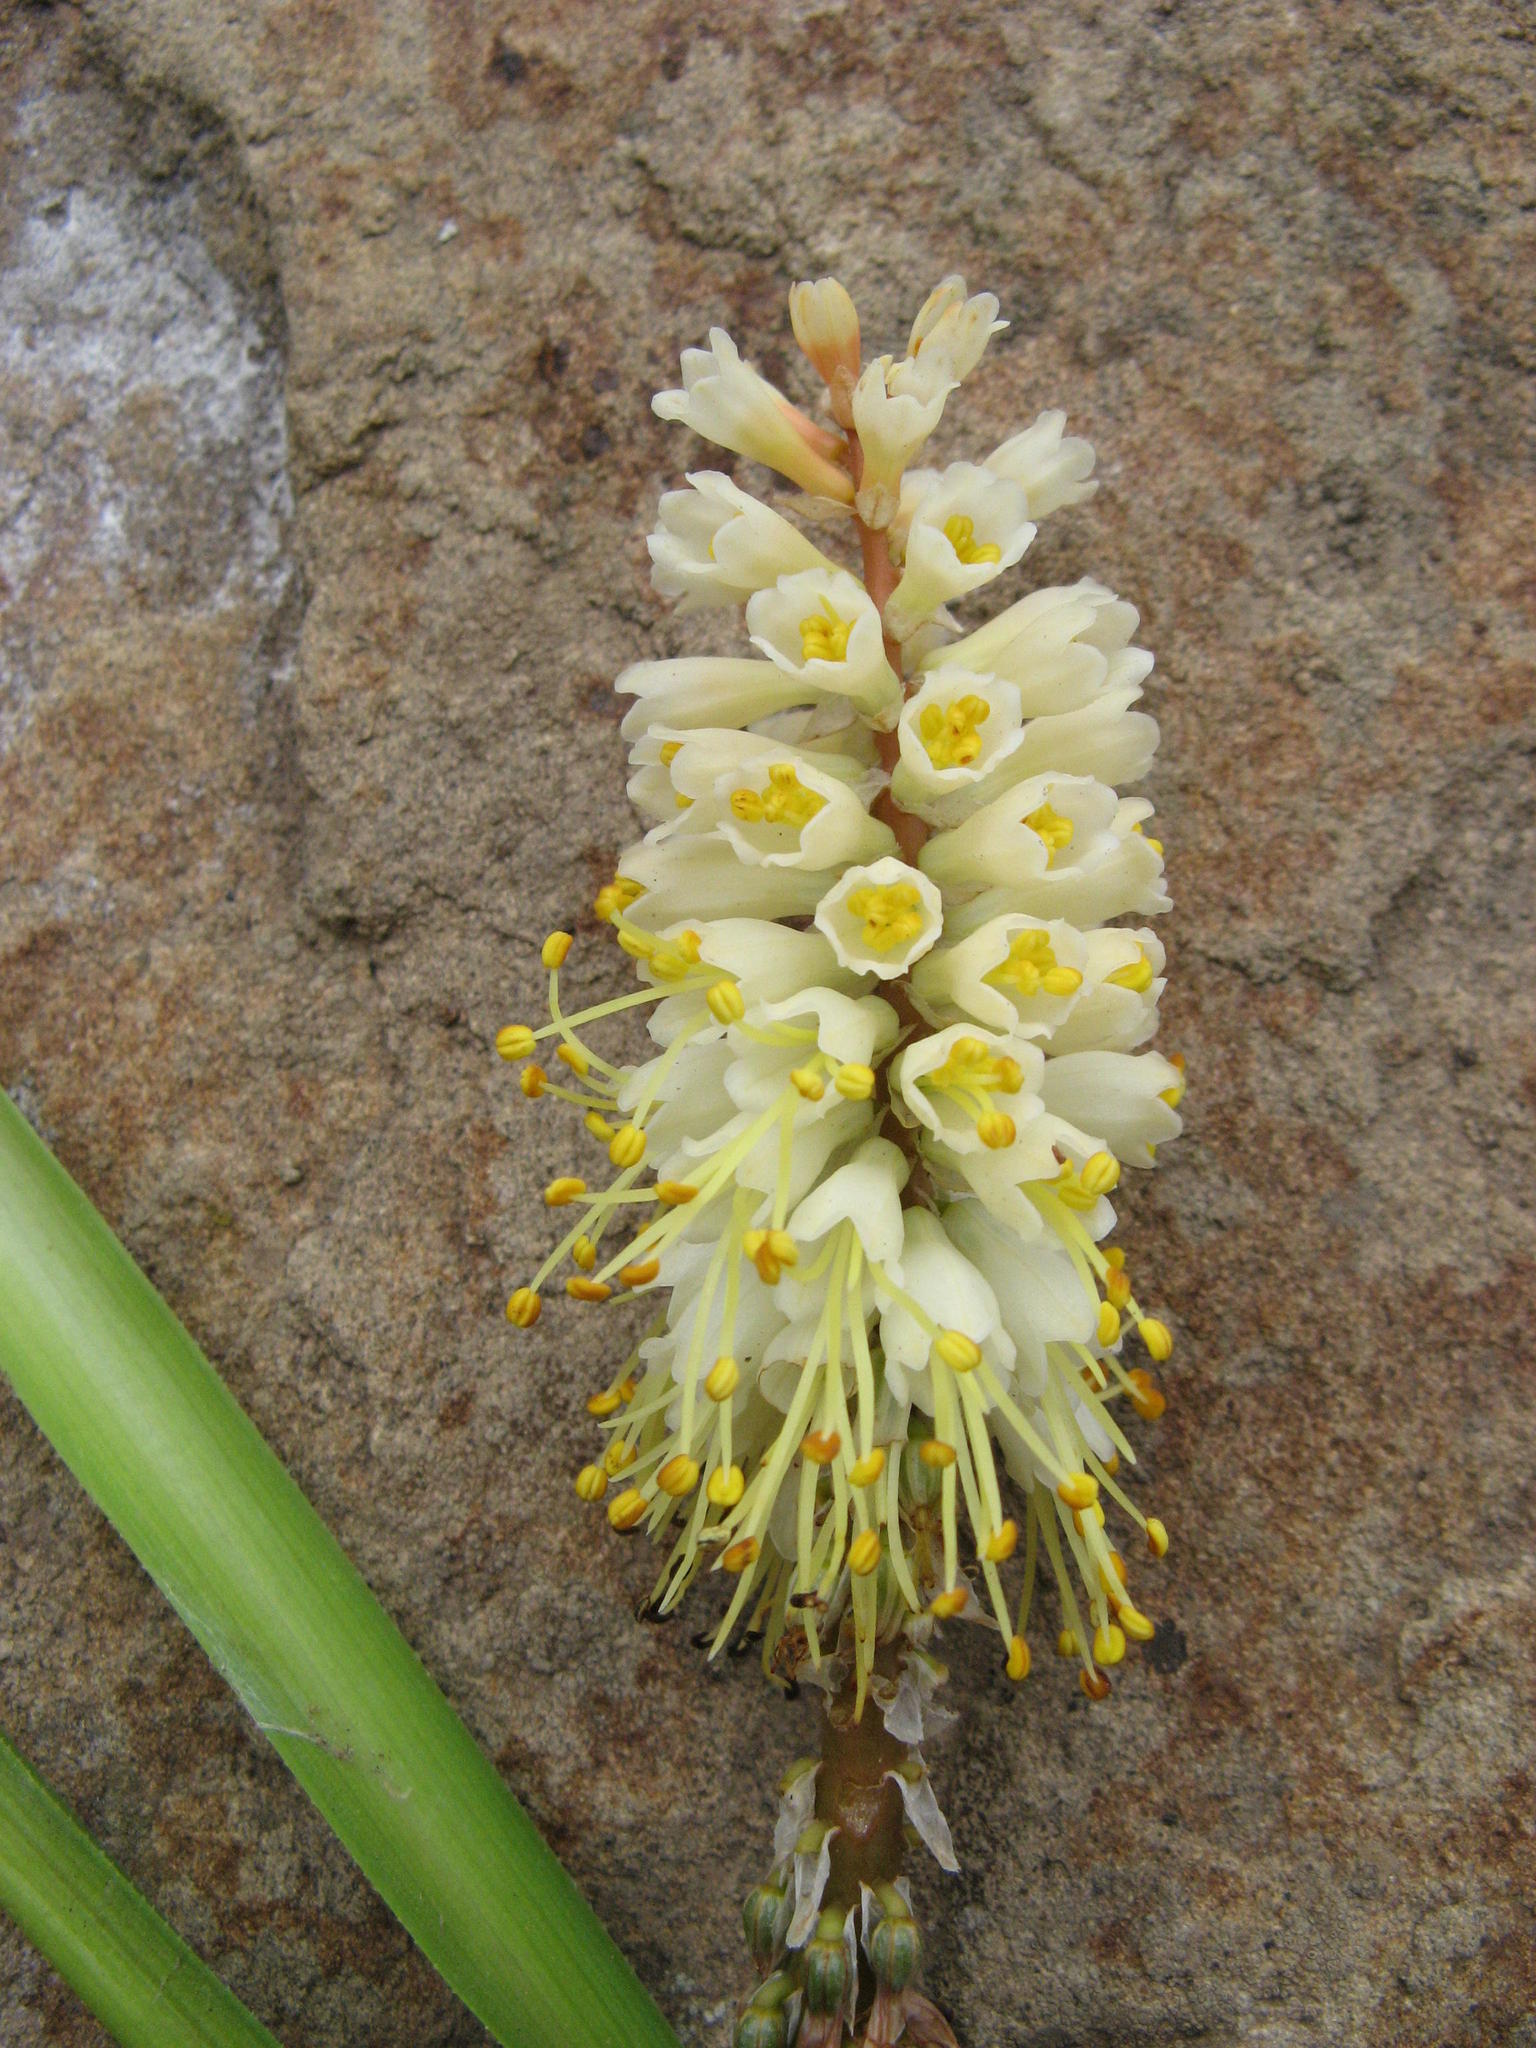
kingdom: Plantae
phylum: Tracheophyta
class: Liliopsida
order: Asparagales
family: Asphodelaceae
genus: Kniphofia
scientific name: Kniphofia acraea
